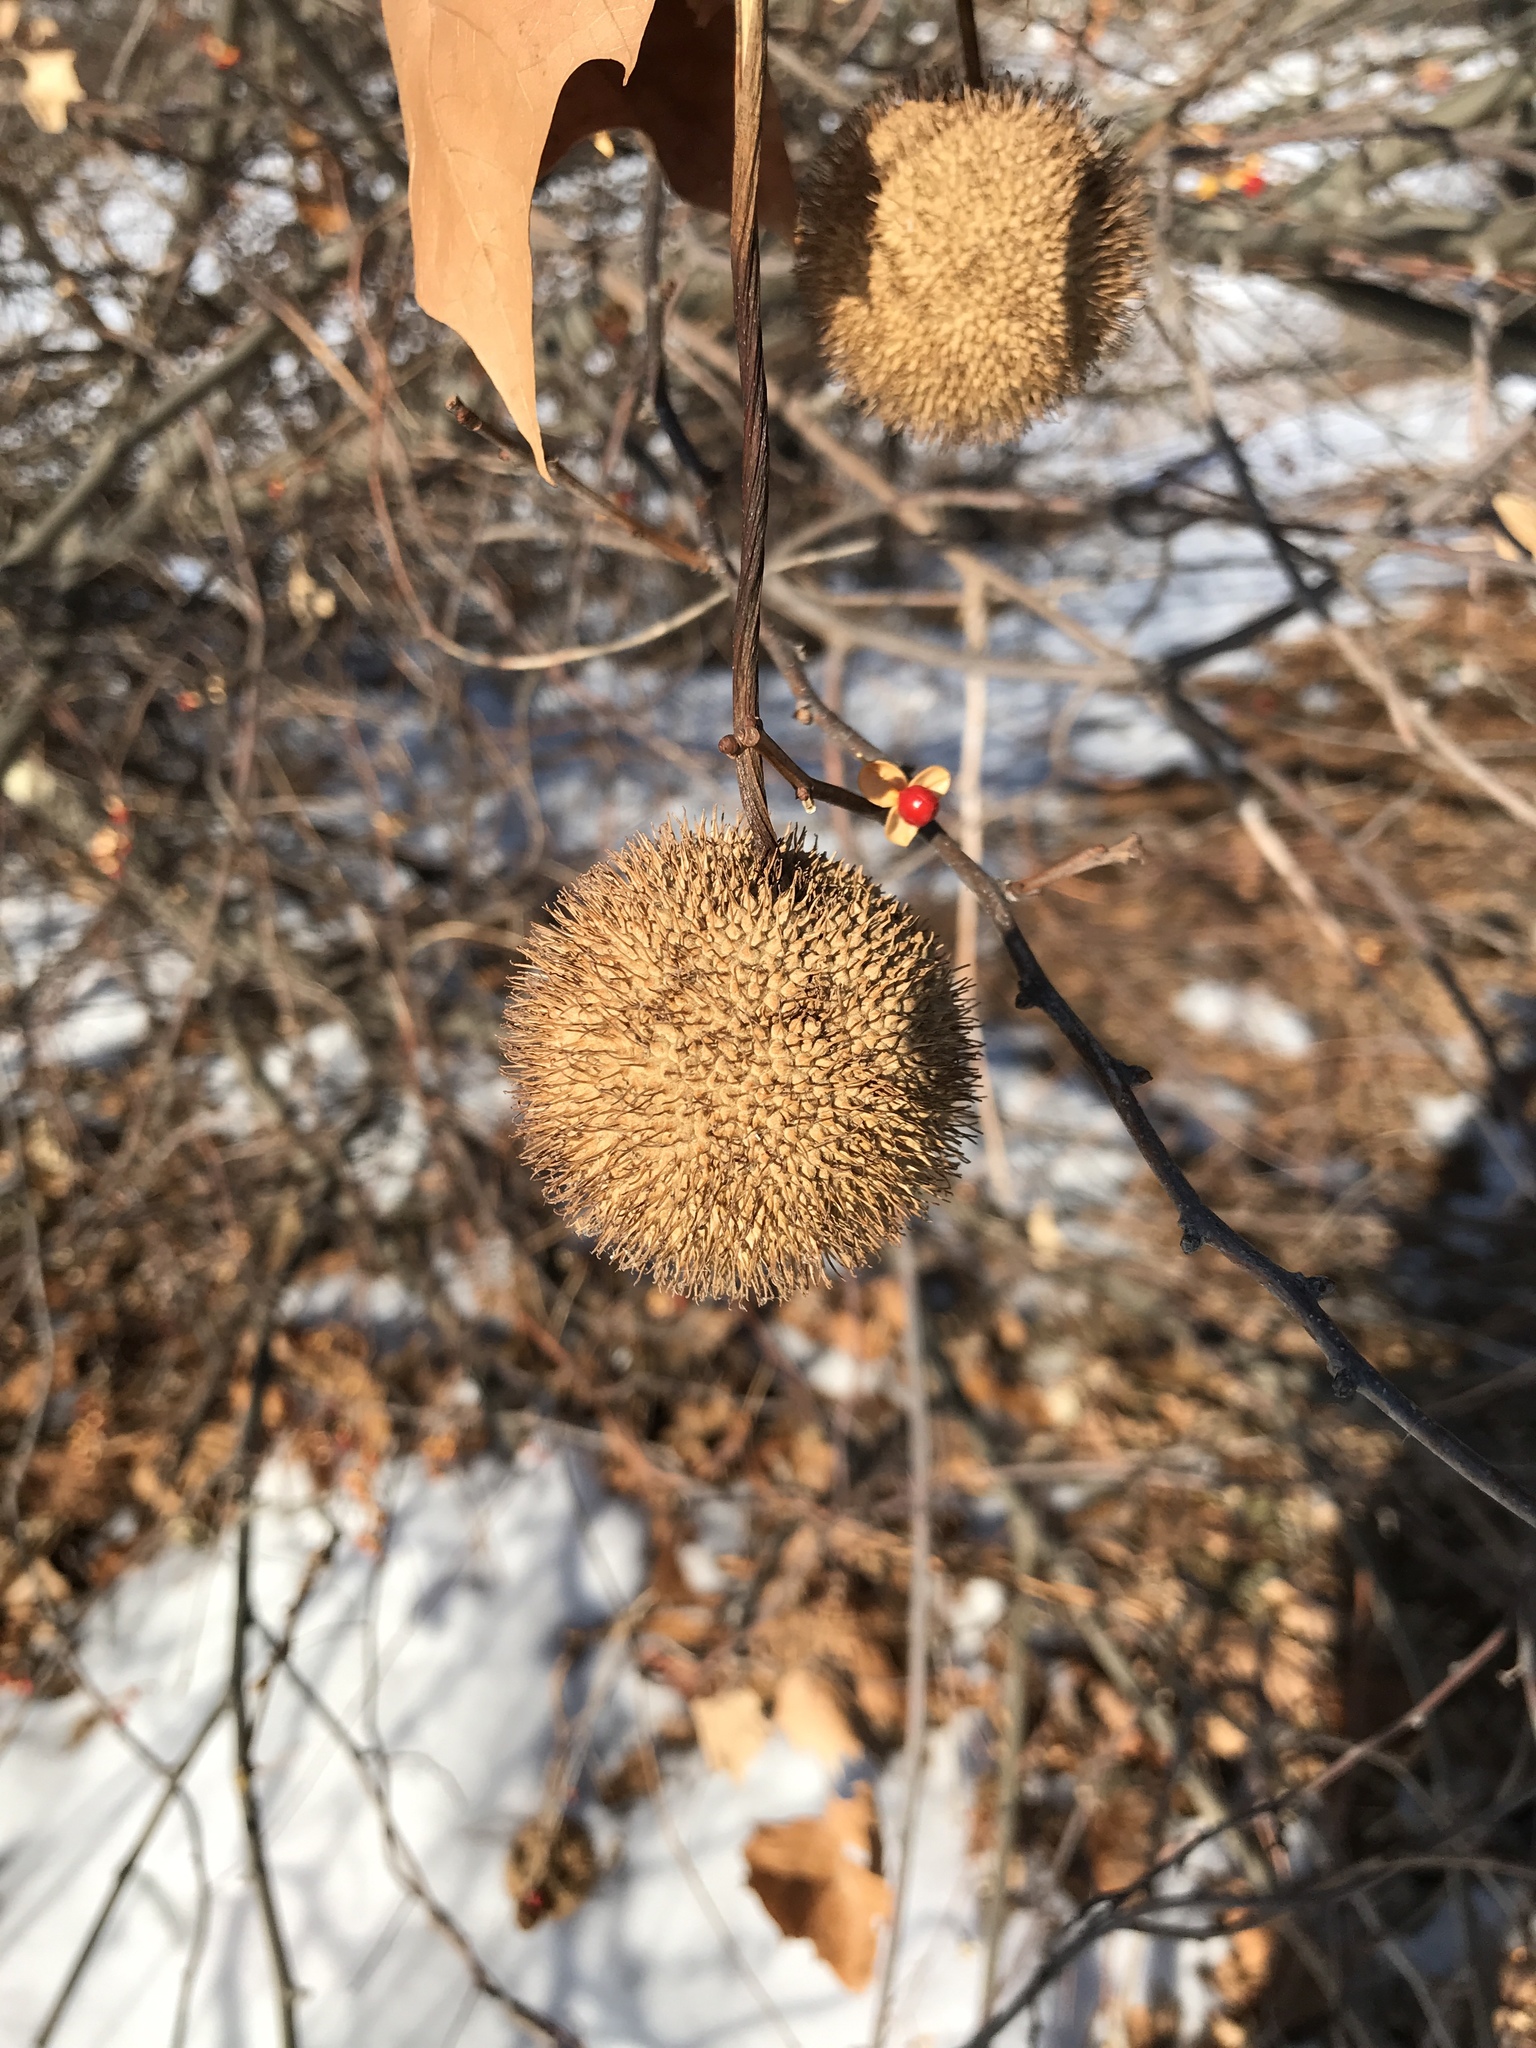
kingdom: Plantae
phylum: Tracheophyta
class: Magnoliopsida
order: Proteales
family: Platanaceae
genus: Platanus
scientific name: Platanus
